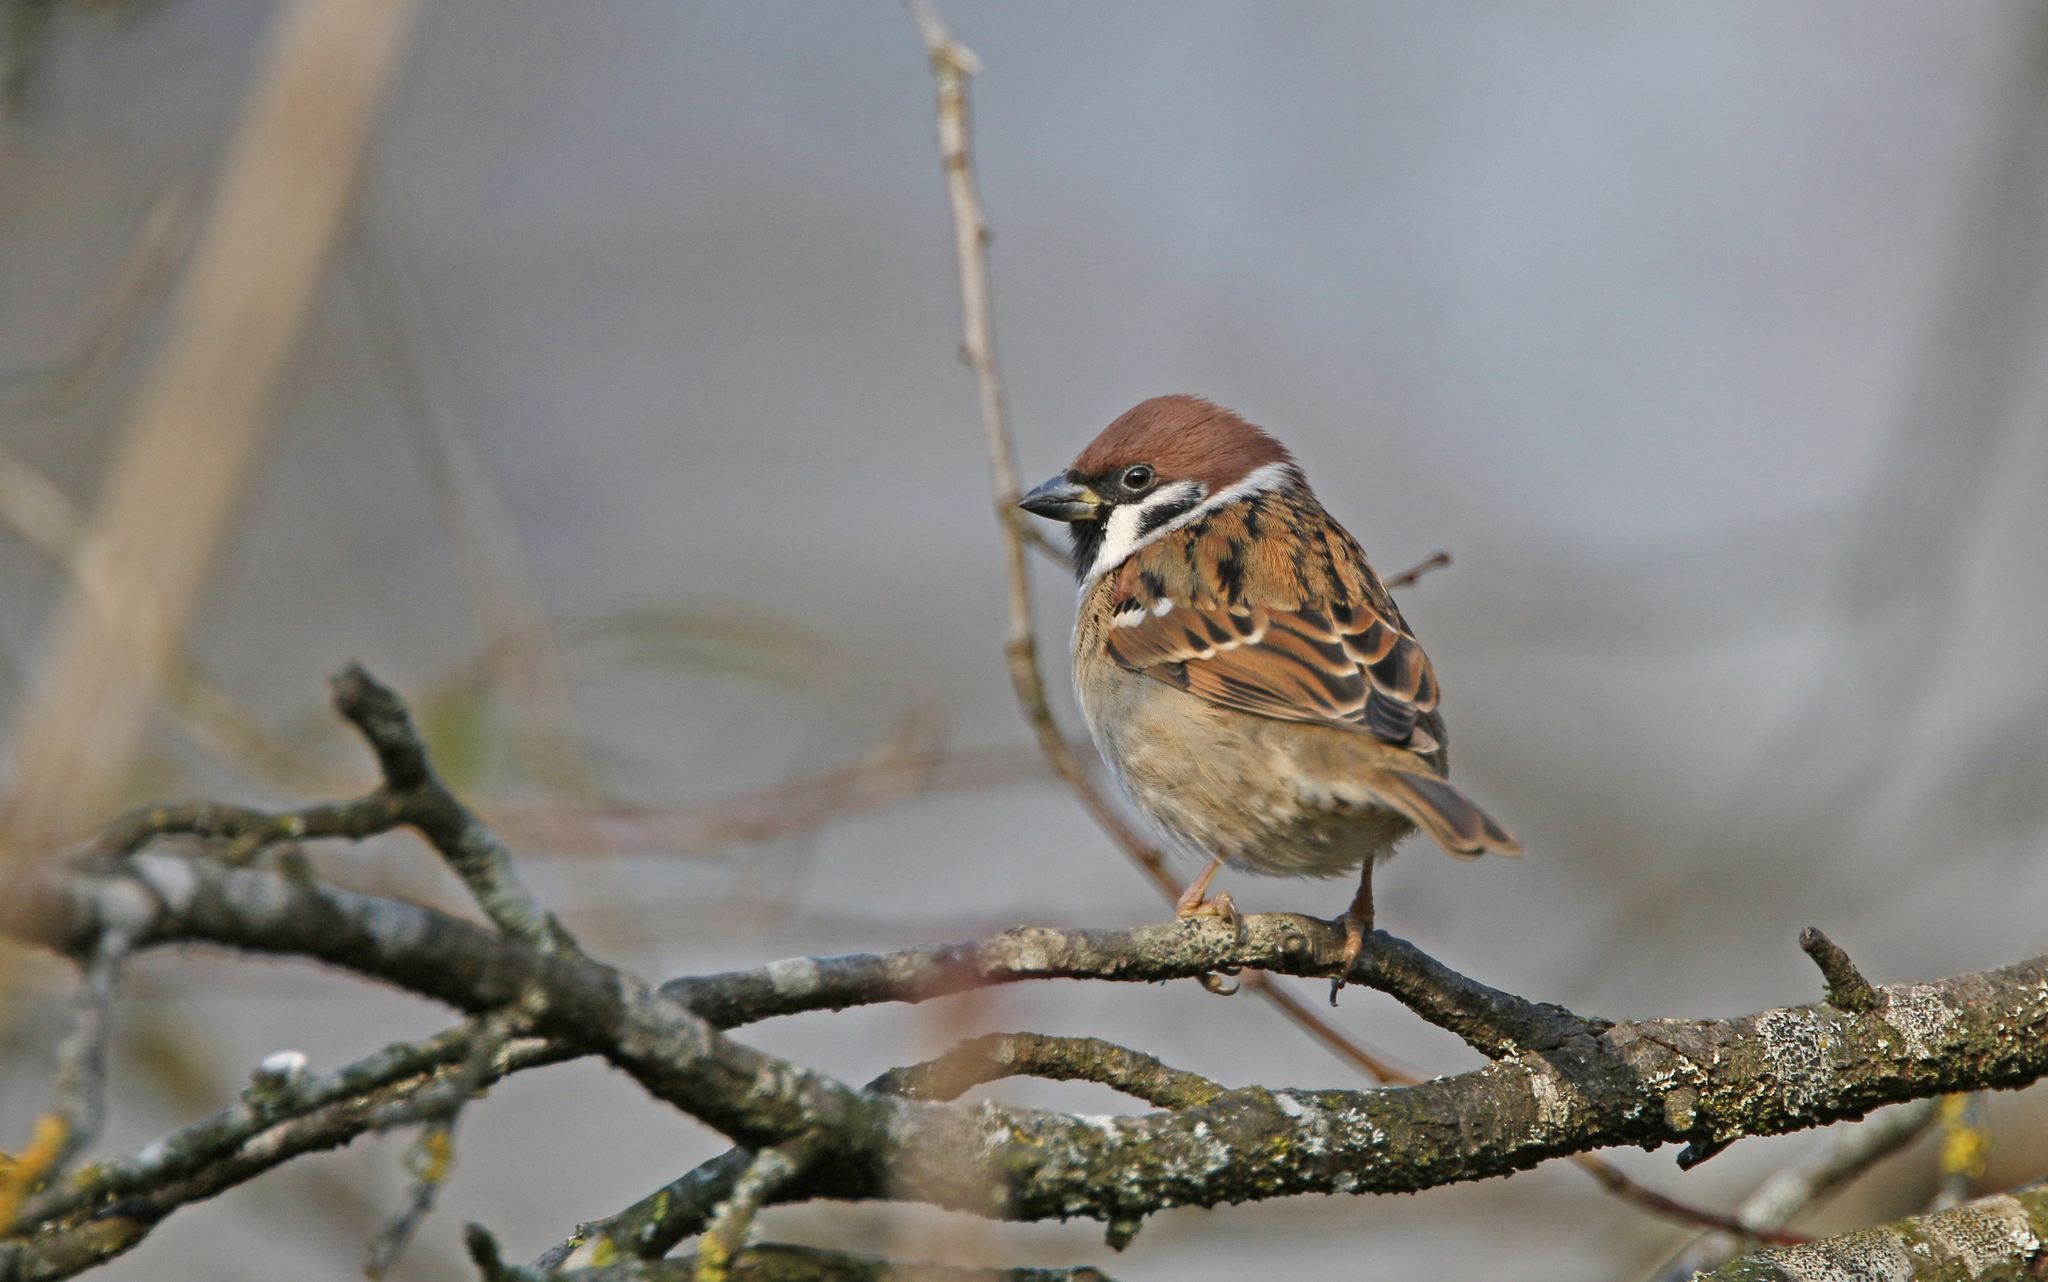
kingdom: Animalia
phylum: Chordata
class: Aves
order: Passeriformes
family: Passeridae
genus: Passer
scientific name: Passer montanus
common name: Eurasian tree sparrow
